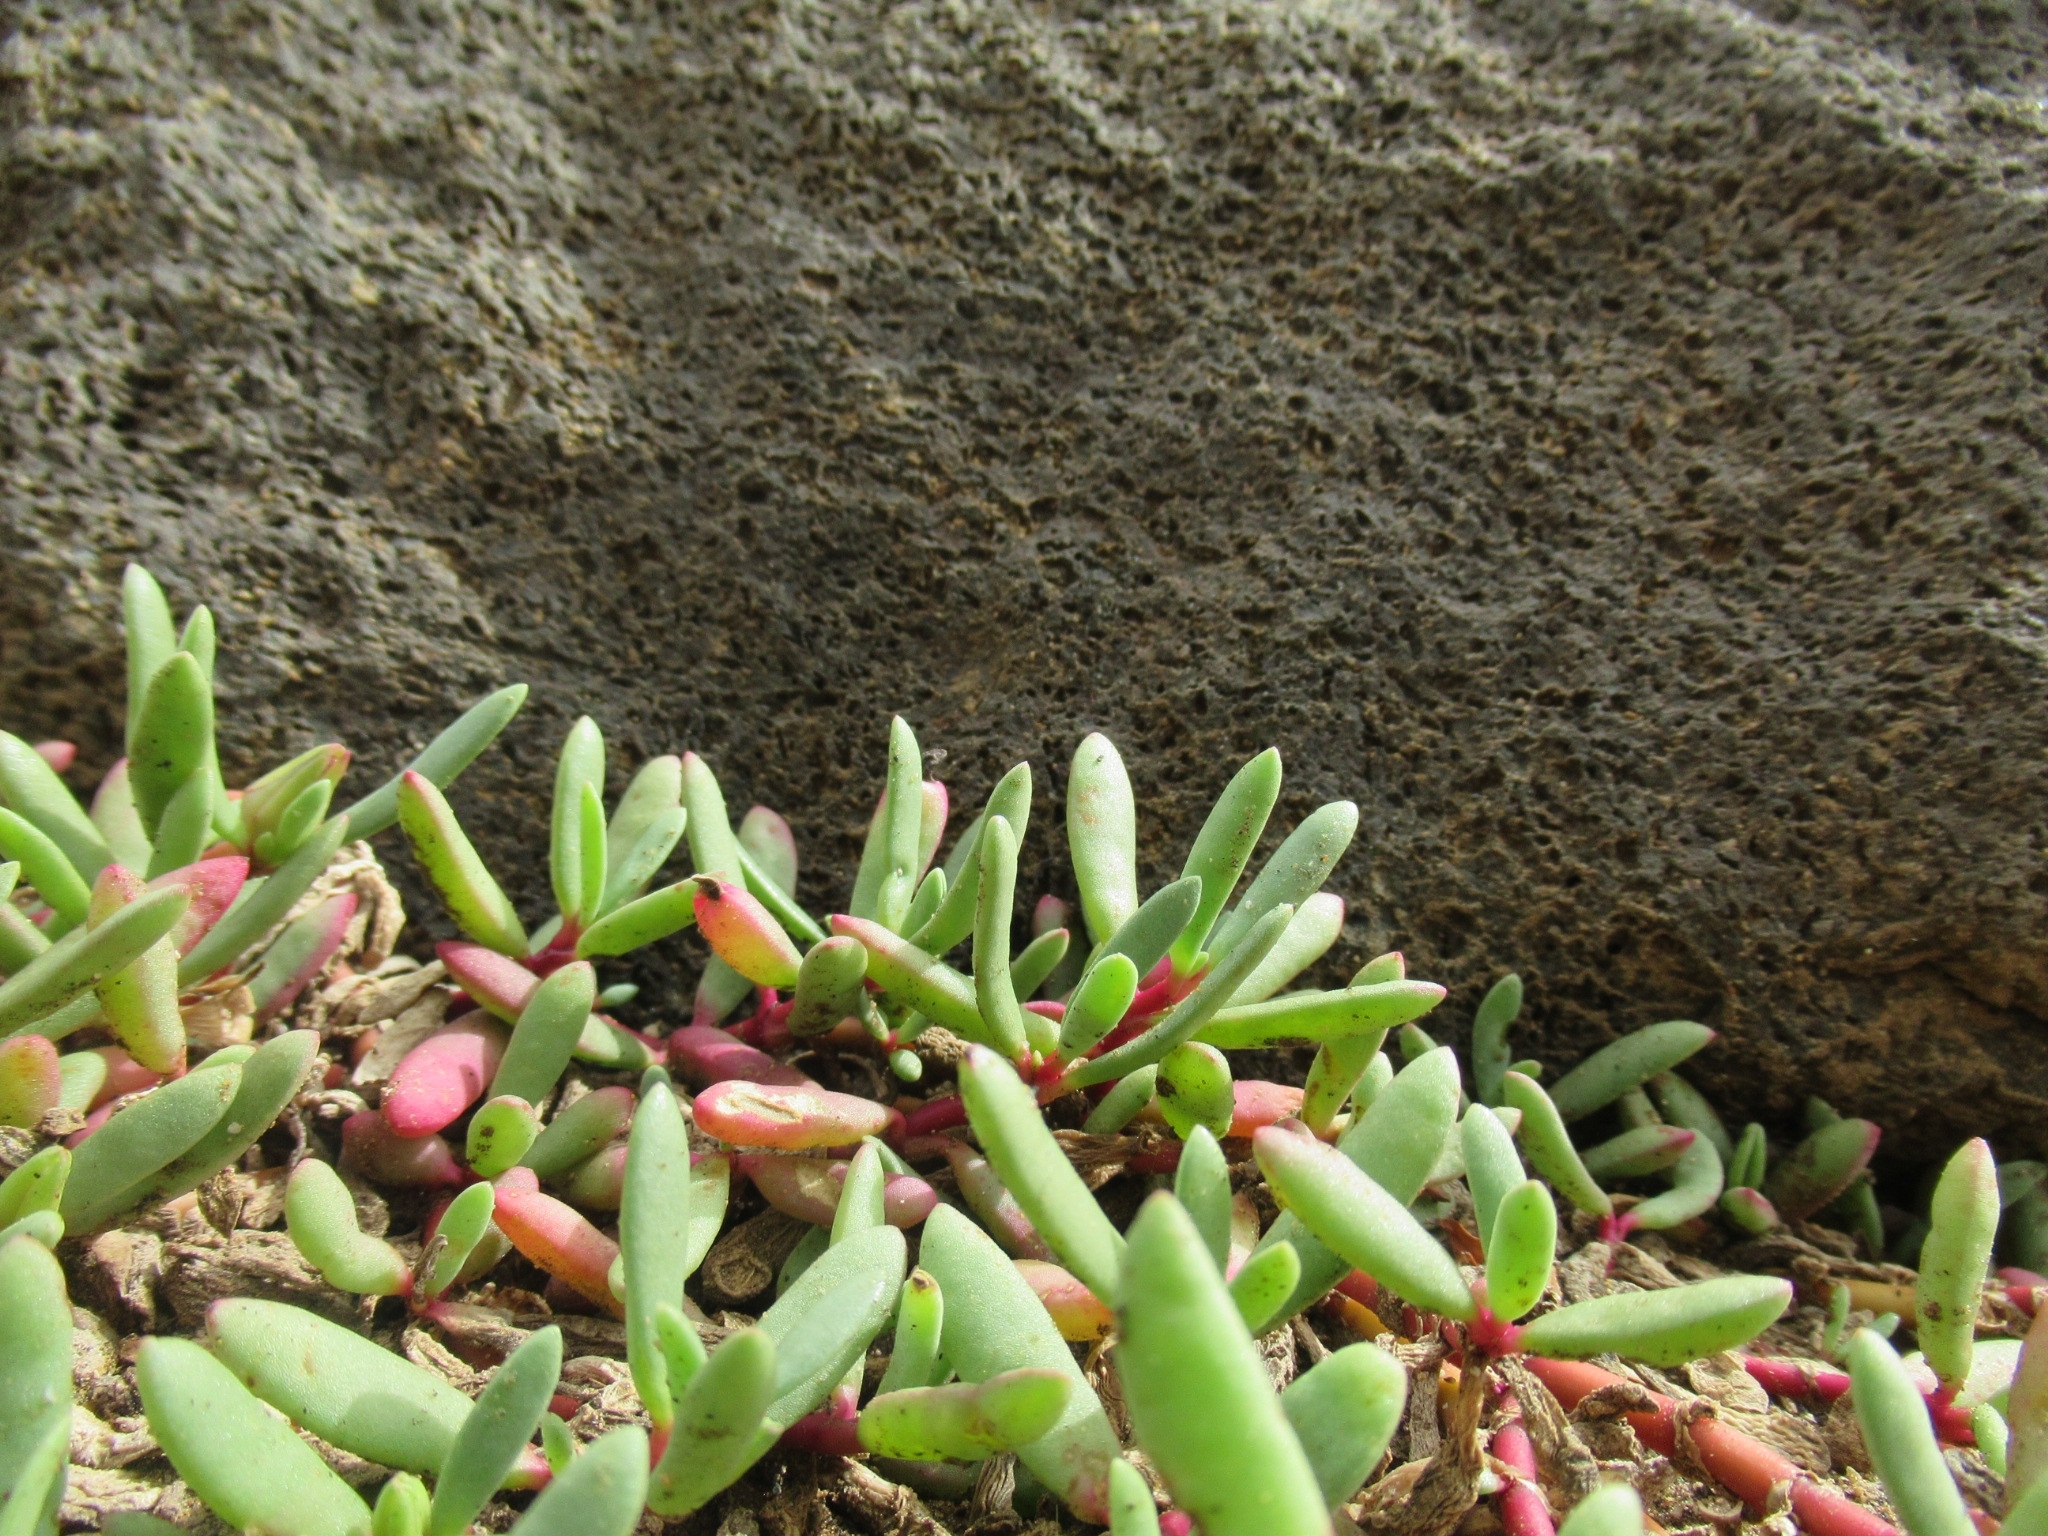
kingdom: Plantae
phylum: Tracheophyta
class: Magnoliopsida
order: Caryophyllales
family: Aizoaceae
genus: Sesuvium
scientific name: Sesuvium portulacastrum
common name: Sea-purslane
